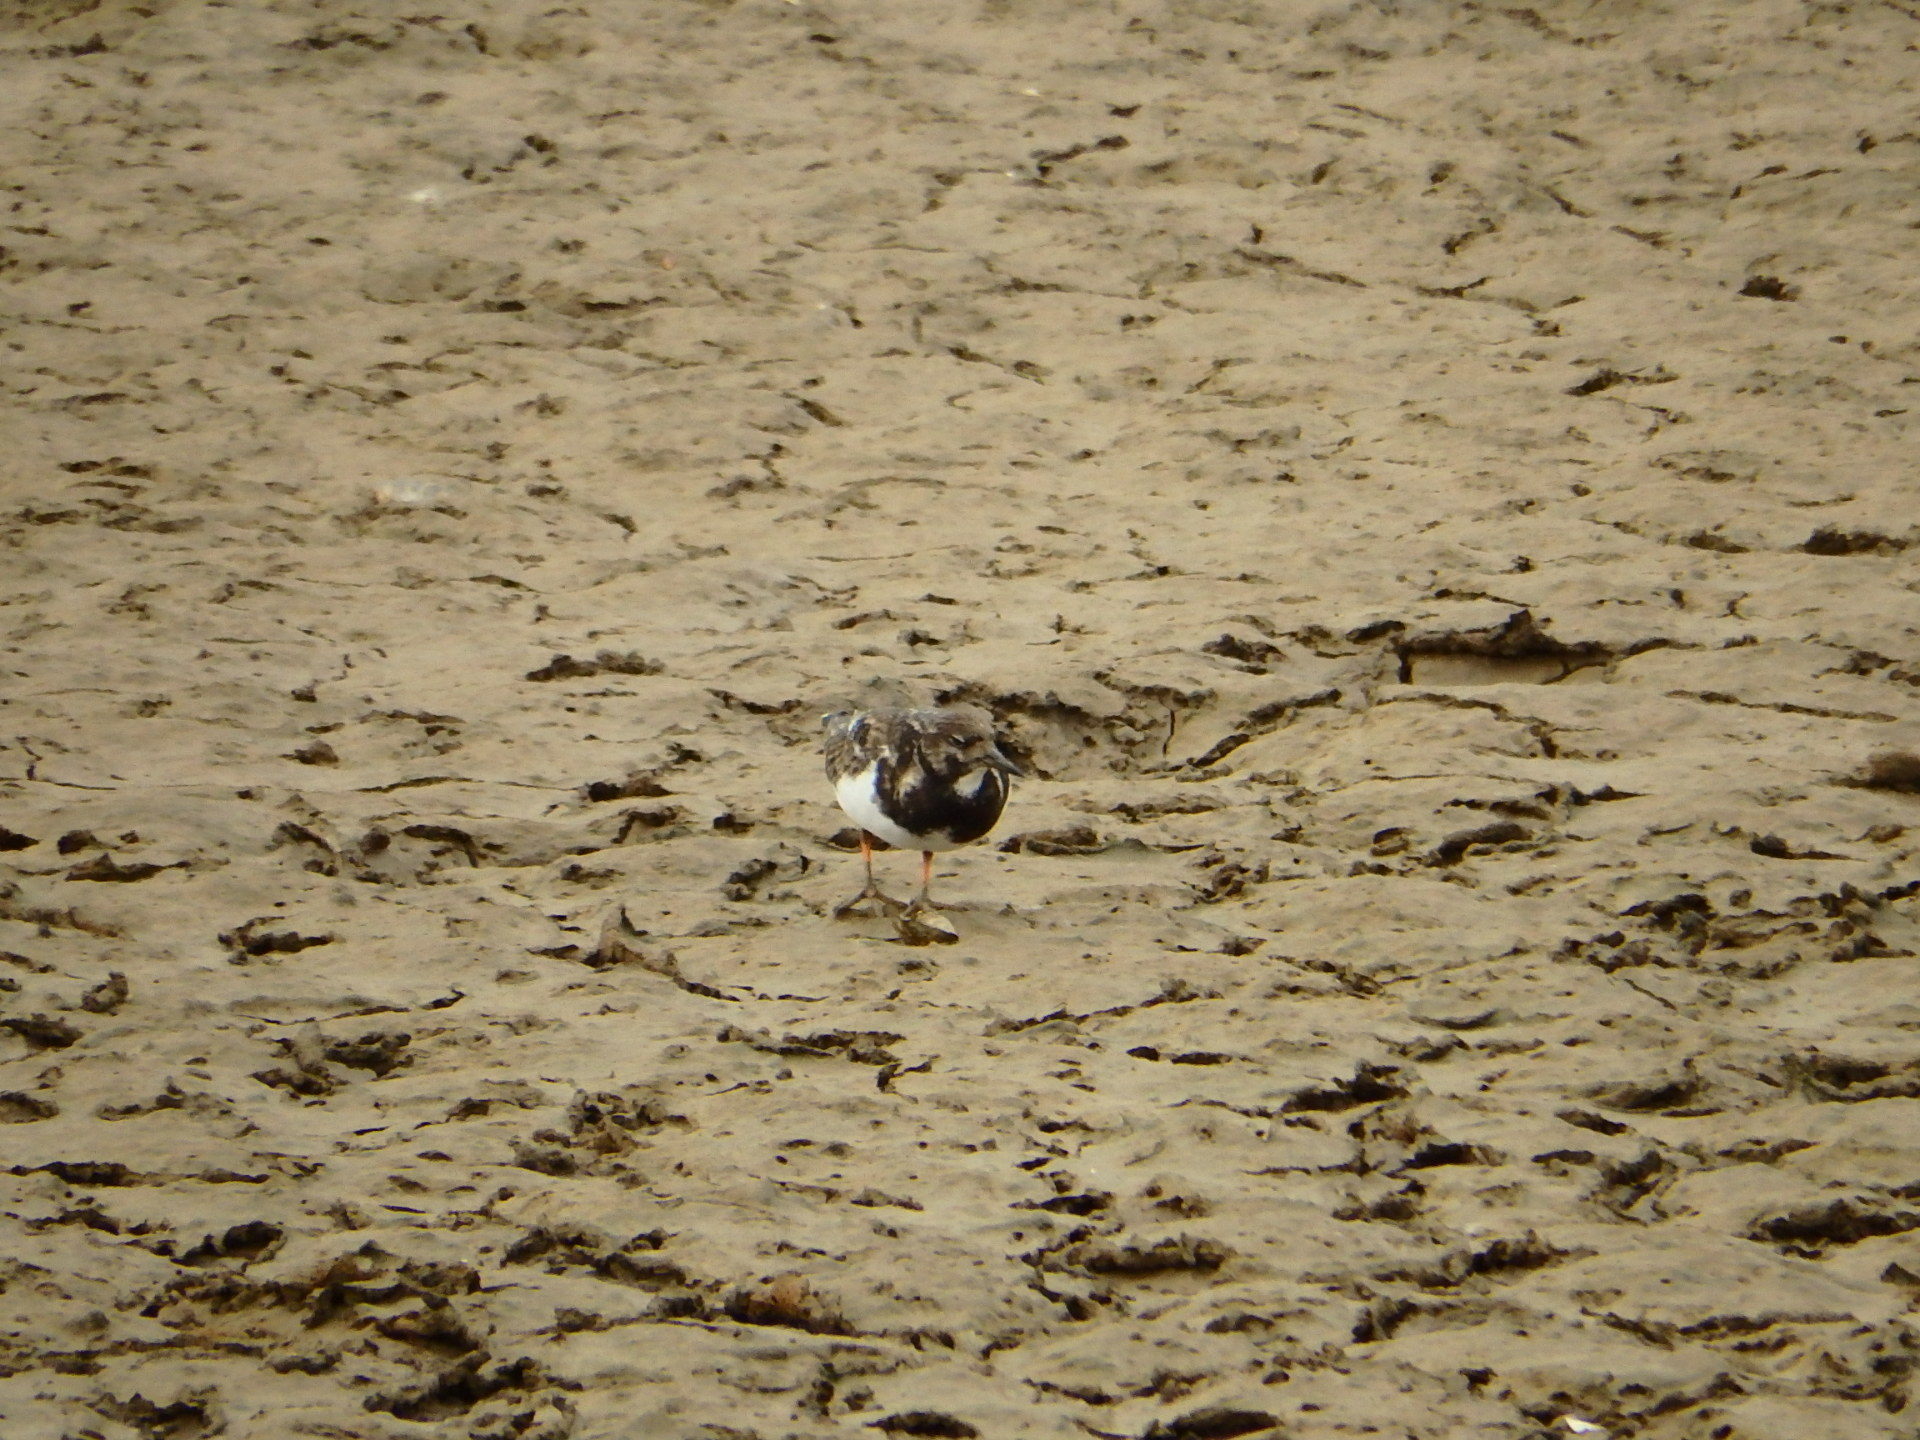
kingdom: Animalia
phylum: Chordata
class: Aves
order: Charadriiformes
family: Scolopacidae
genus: Arenaria
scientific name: Arenaria interpres
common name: Ruddy turnstone
